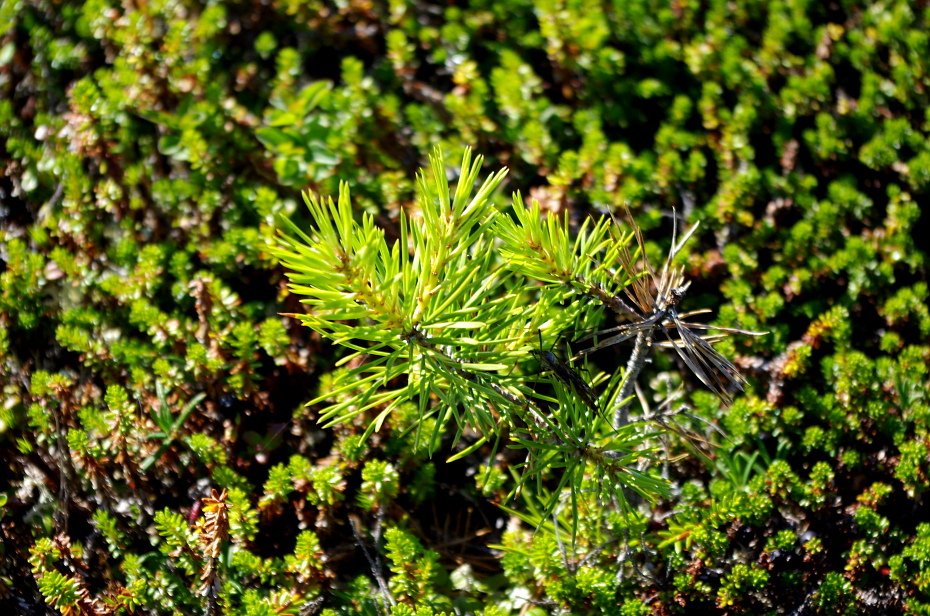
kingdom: Plantae
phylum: Tracheophyta
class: Pinopsida
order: Pinales
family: Pinaceae
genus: Pinus
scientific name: Pinus sylvestris
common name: Scots pine
